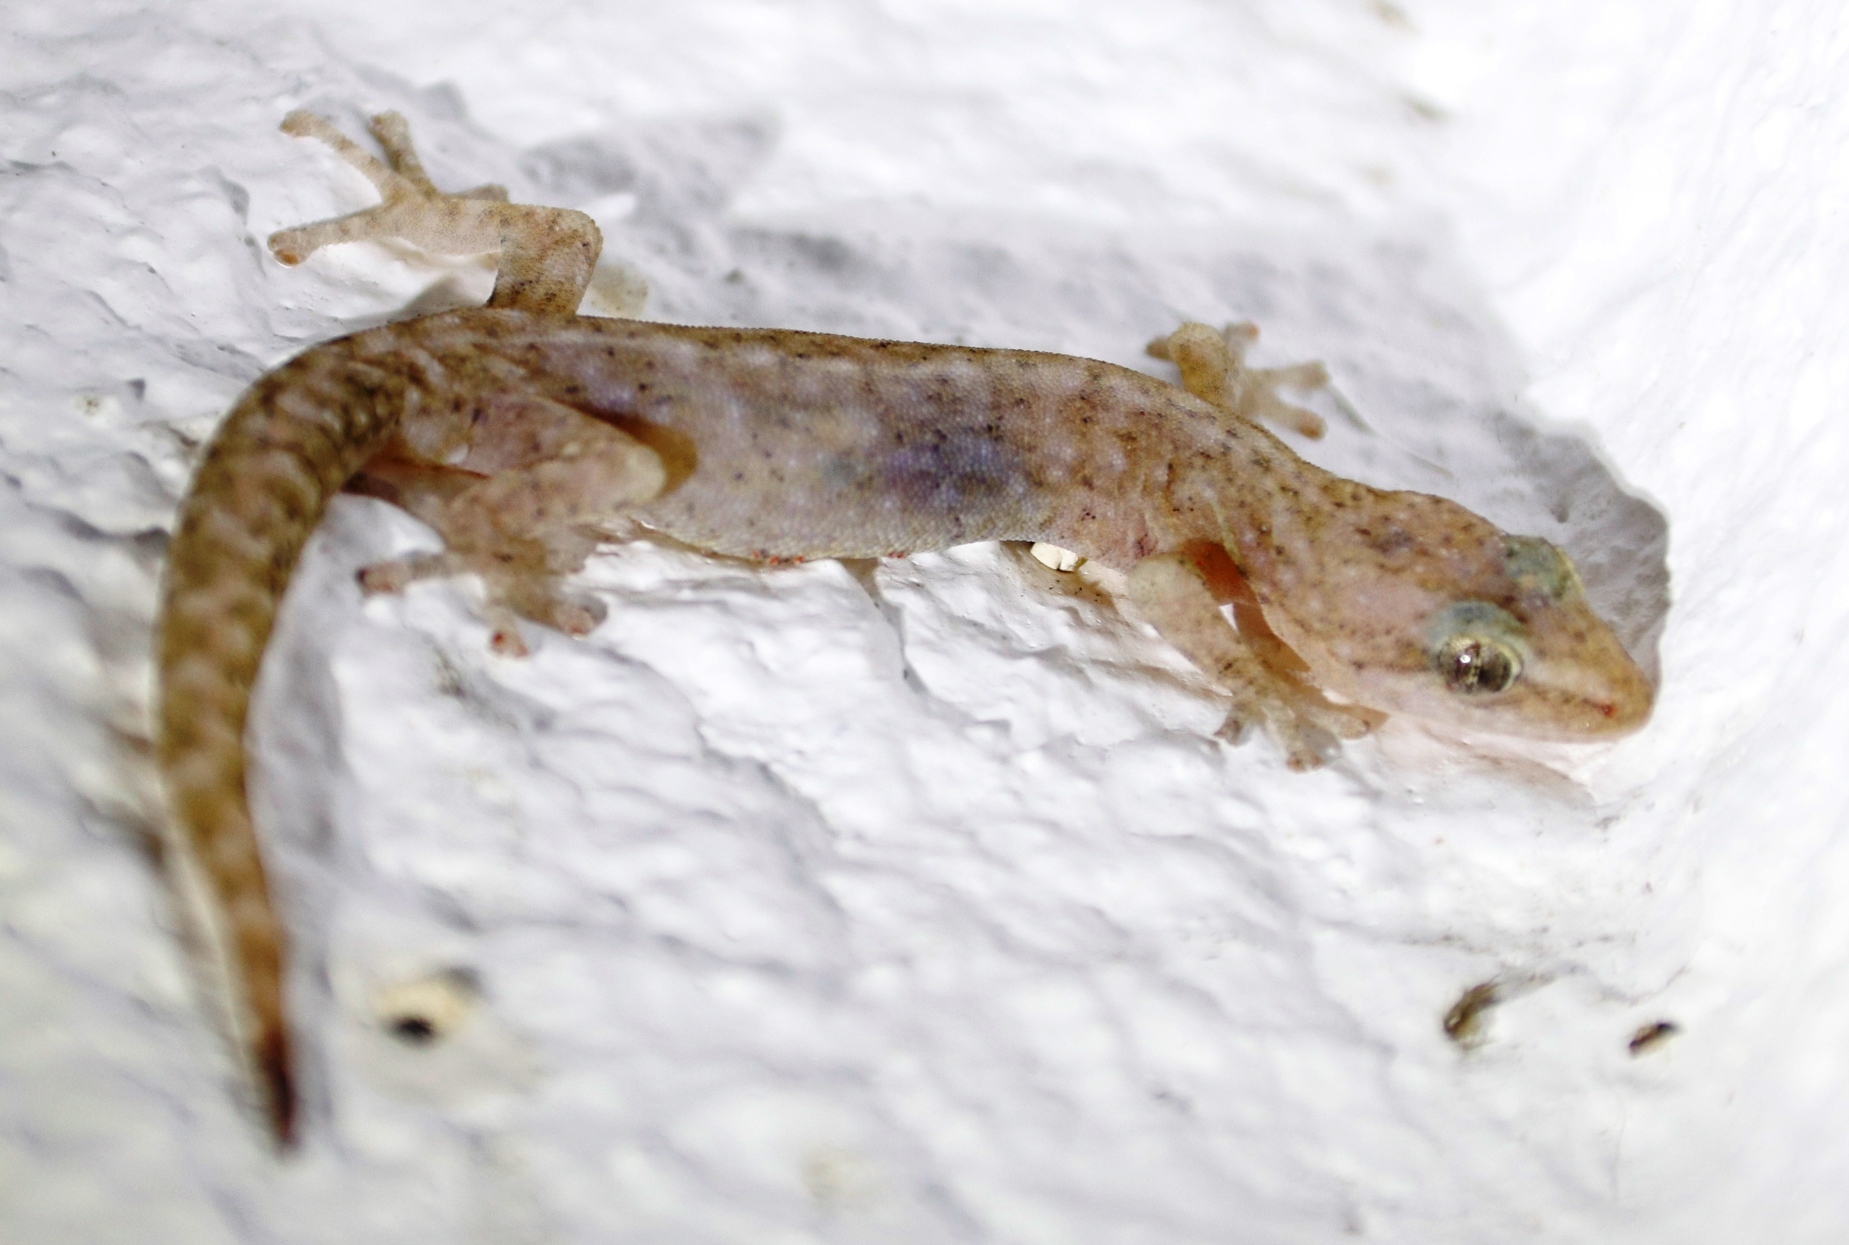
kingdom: Animalia
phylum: Chordata
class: Squamata
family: Gekkonidae
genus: Afrogecko
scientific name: Afrogecko porphyreus
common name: Marbled leaf-toed gecko
